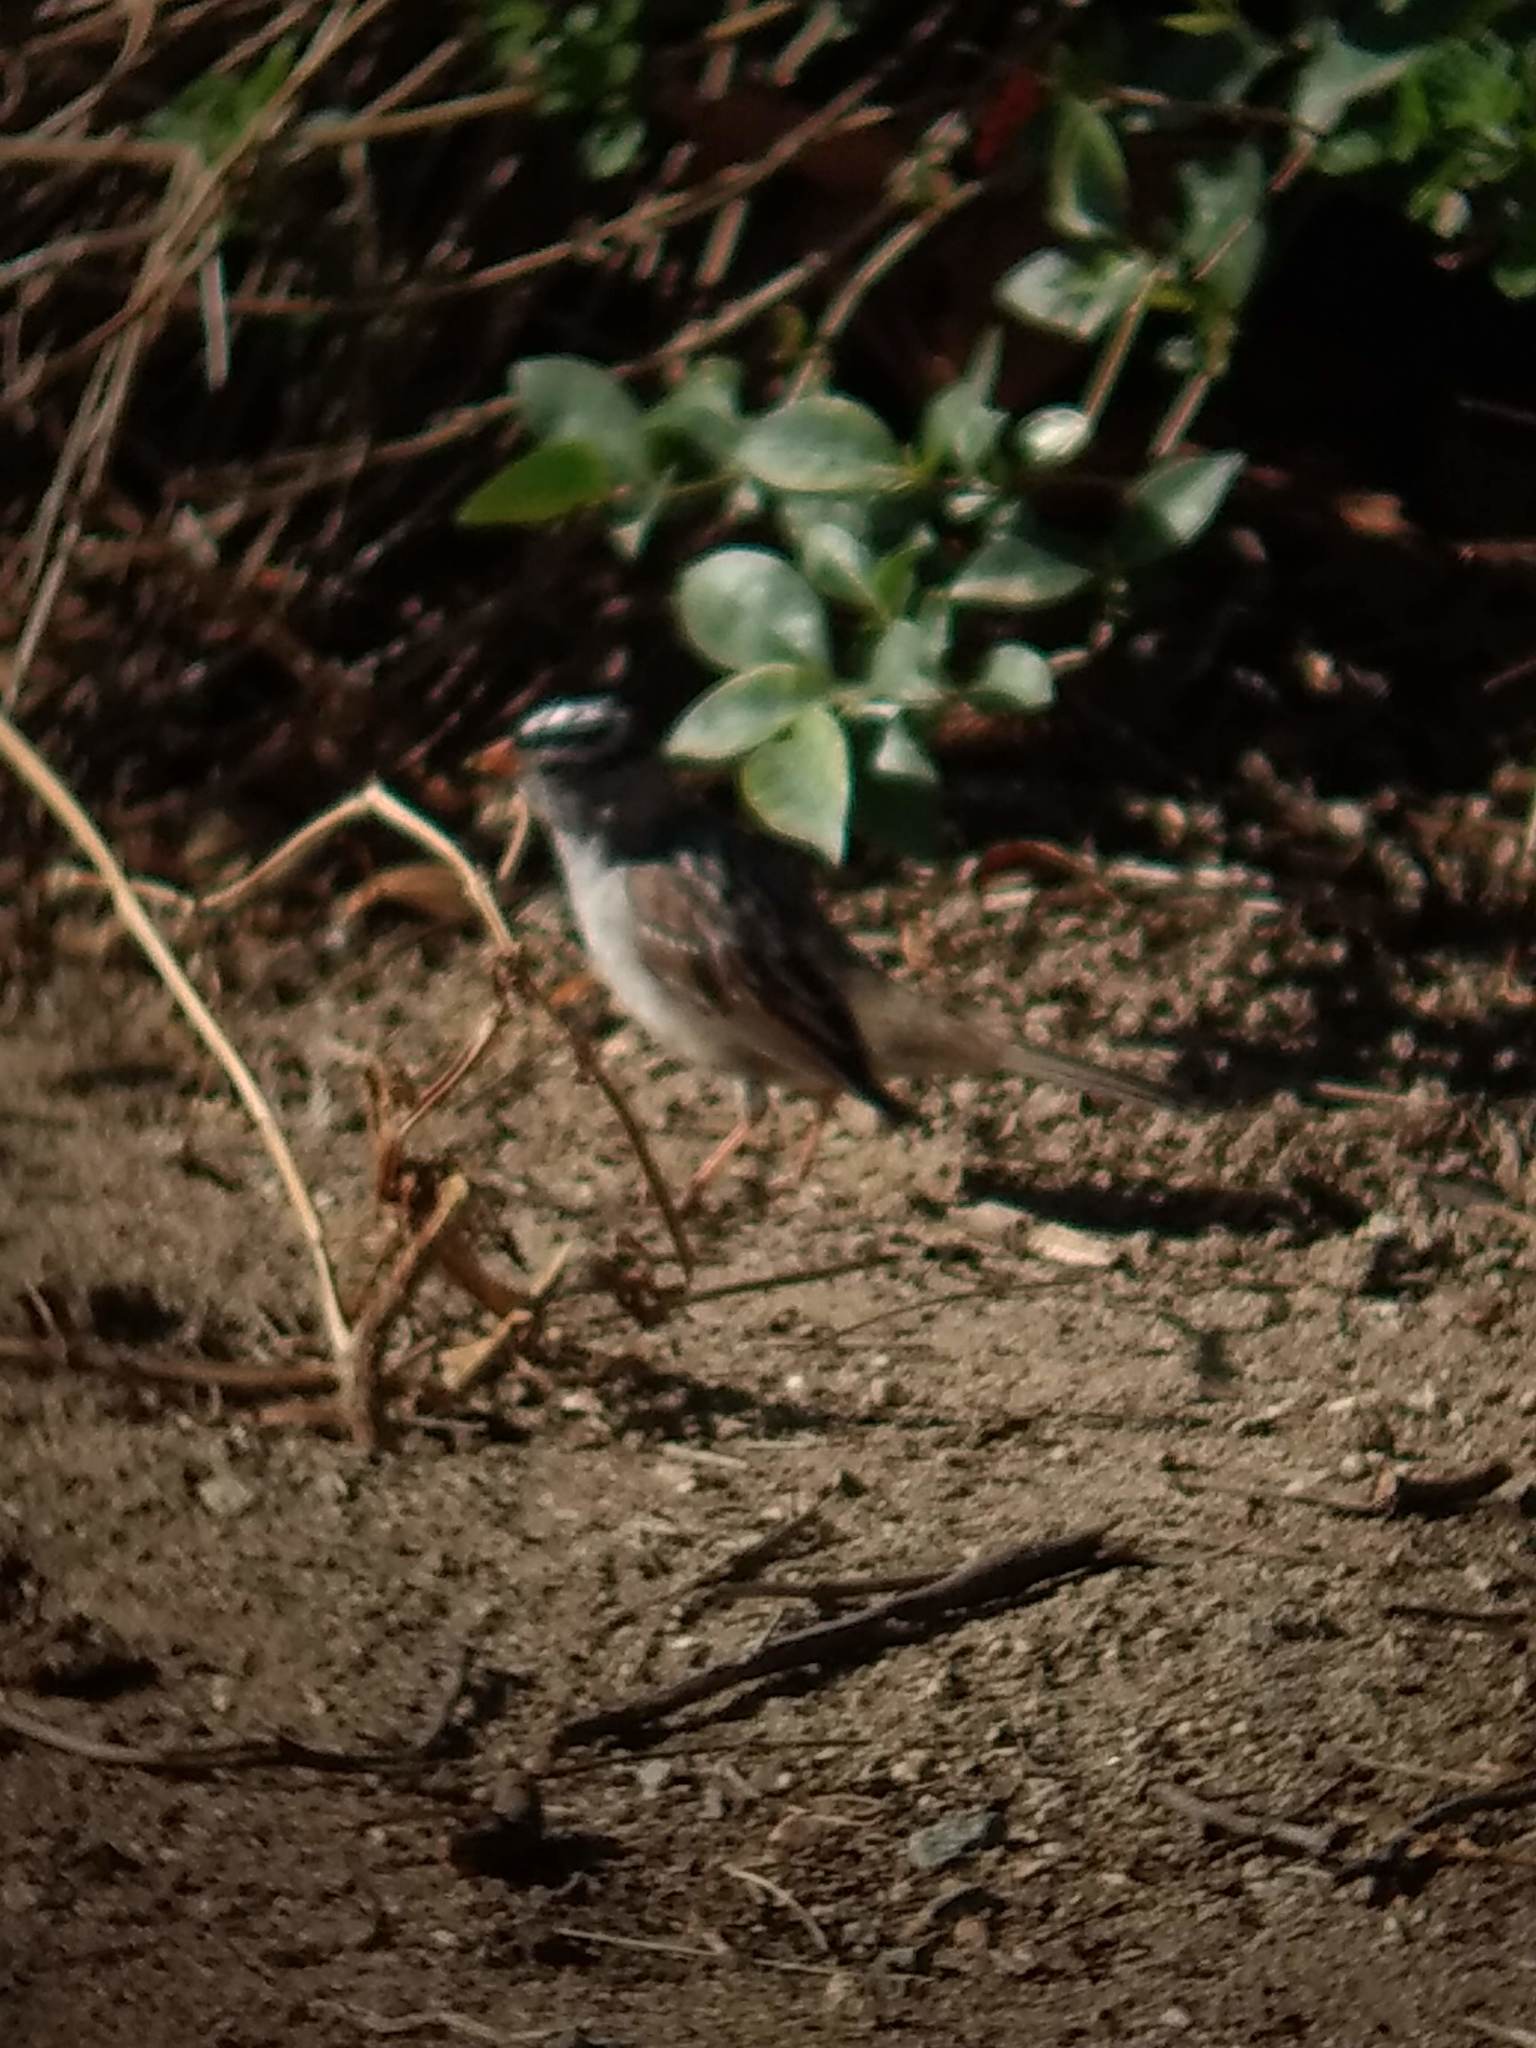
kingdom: Animalia
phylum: Chordata
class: Aves
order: Passeriformes
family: Passerellidae
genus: Zonotrichia
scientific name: Zonotrichia leucophrys
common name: White-crowned sparrow
